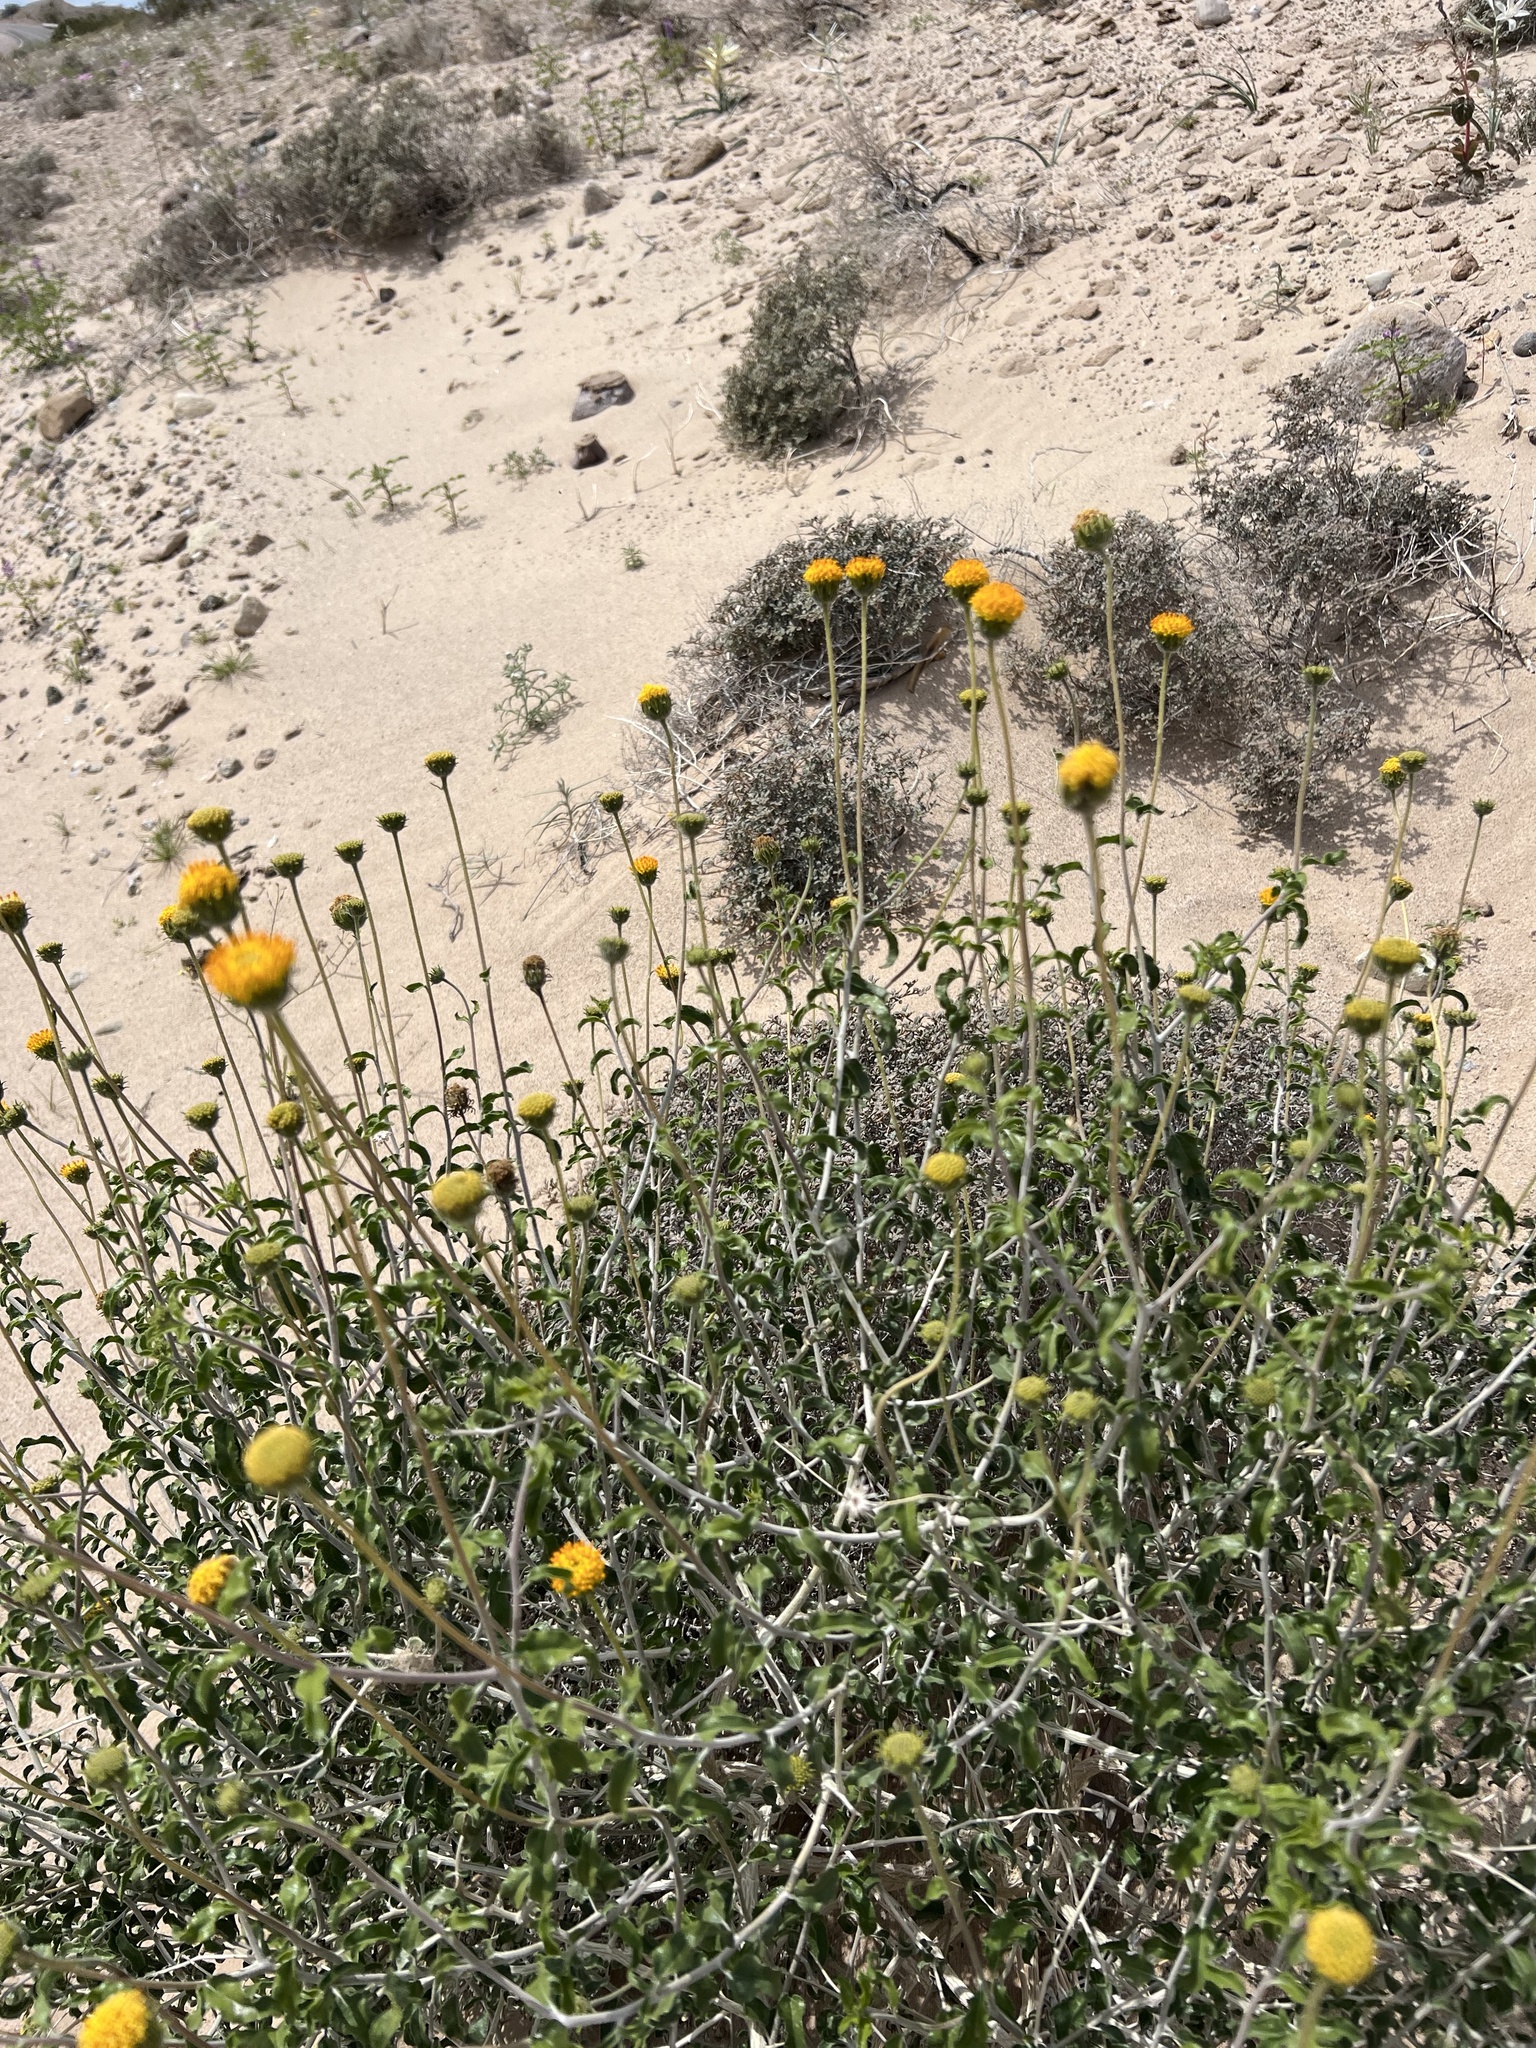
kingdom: Plantae
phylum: Tracheophyta
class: Magnoliopsida
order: Asterales
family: Asteraceae
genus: Encelia
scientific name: Encelia frutescens
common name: Bush encelia
